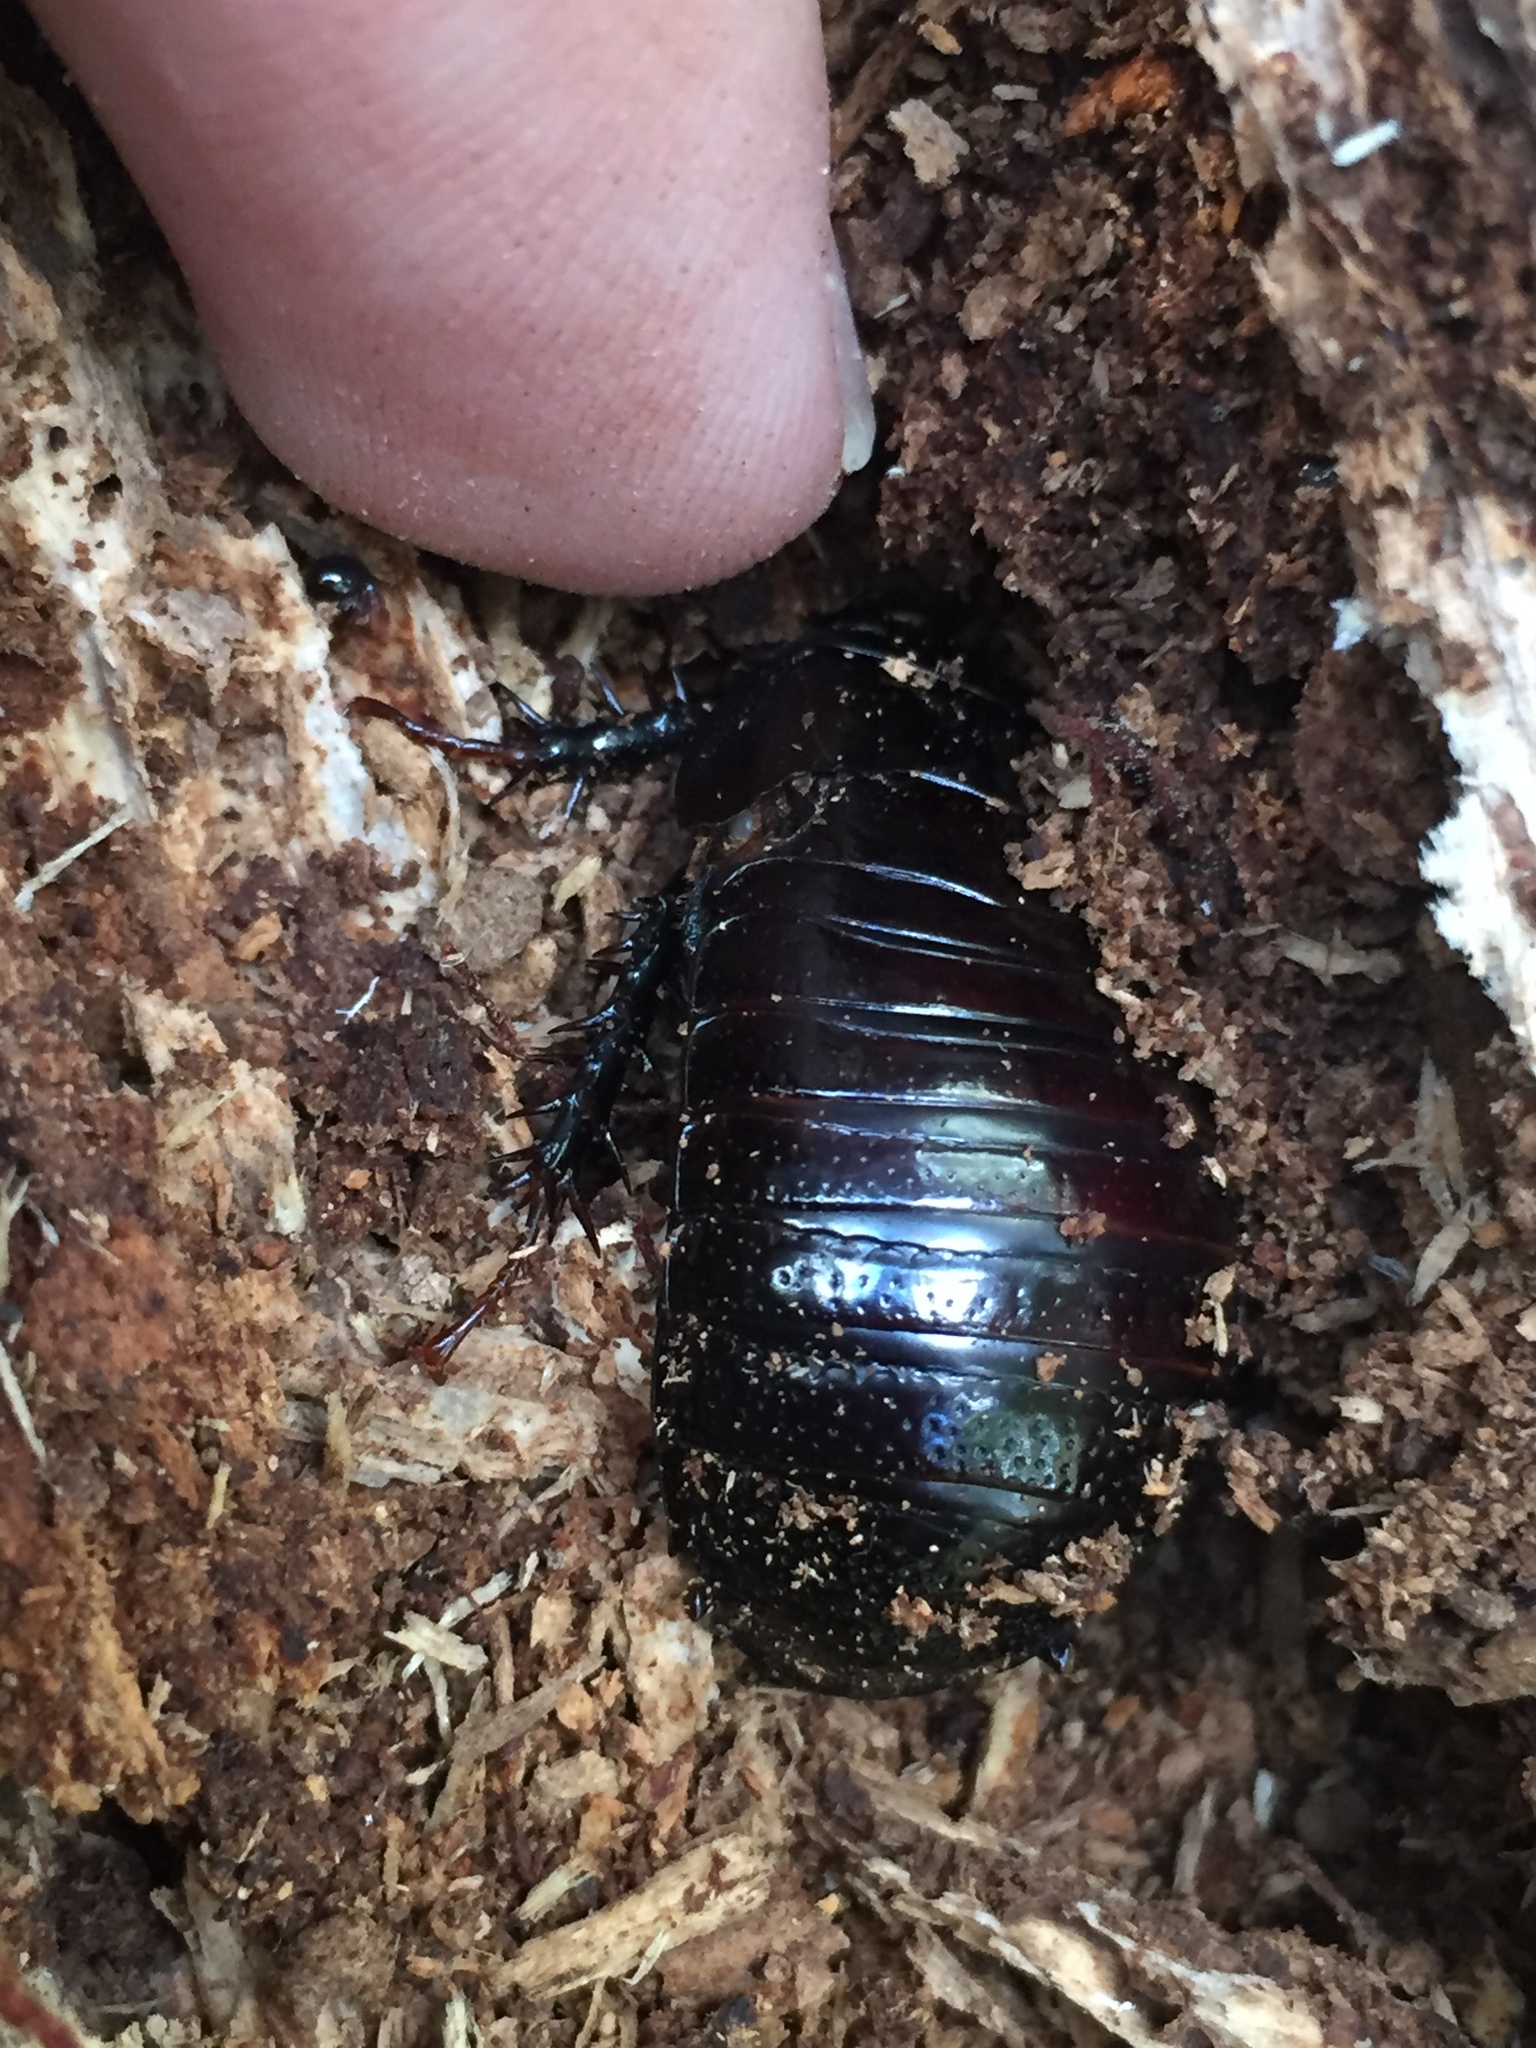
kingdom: Animalia
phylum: Arthropoda
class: Insecta
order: Blattodea
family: Blaberidae
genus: Panesthia
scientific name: Panesthia cribrata
